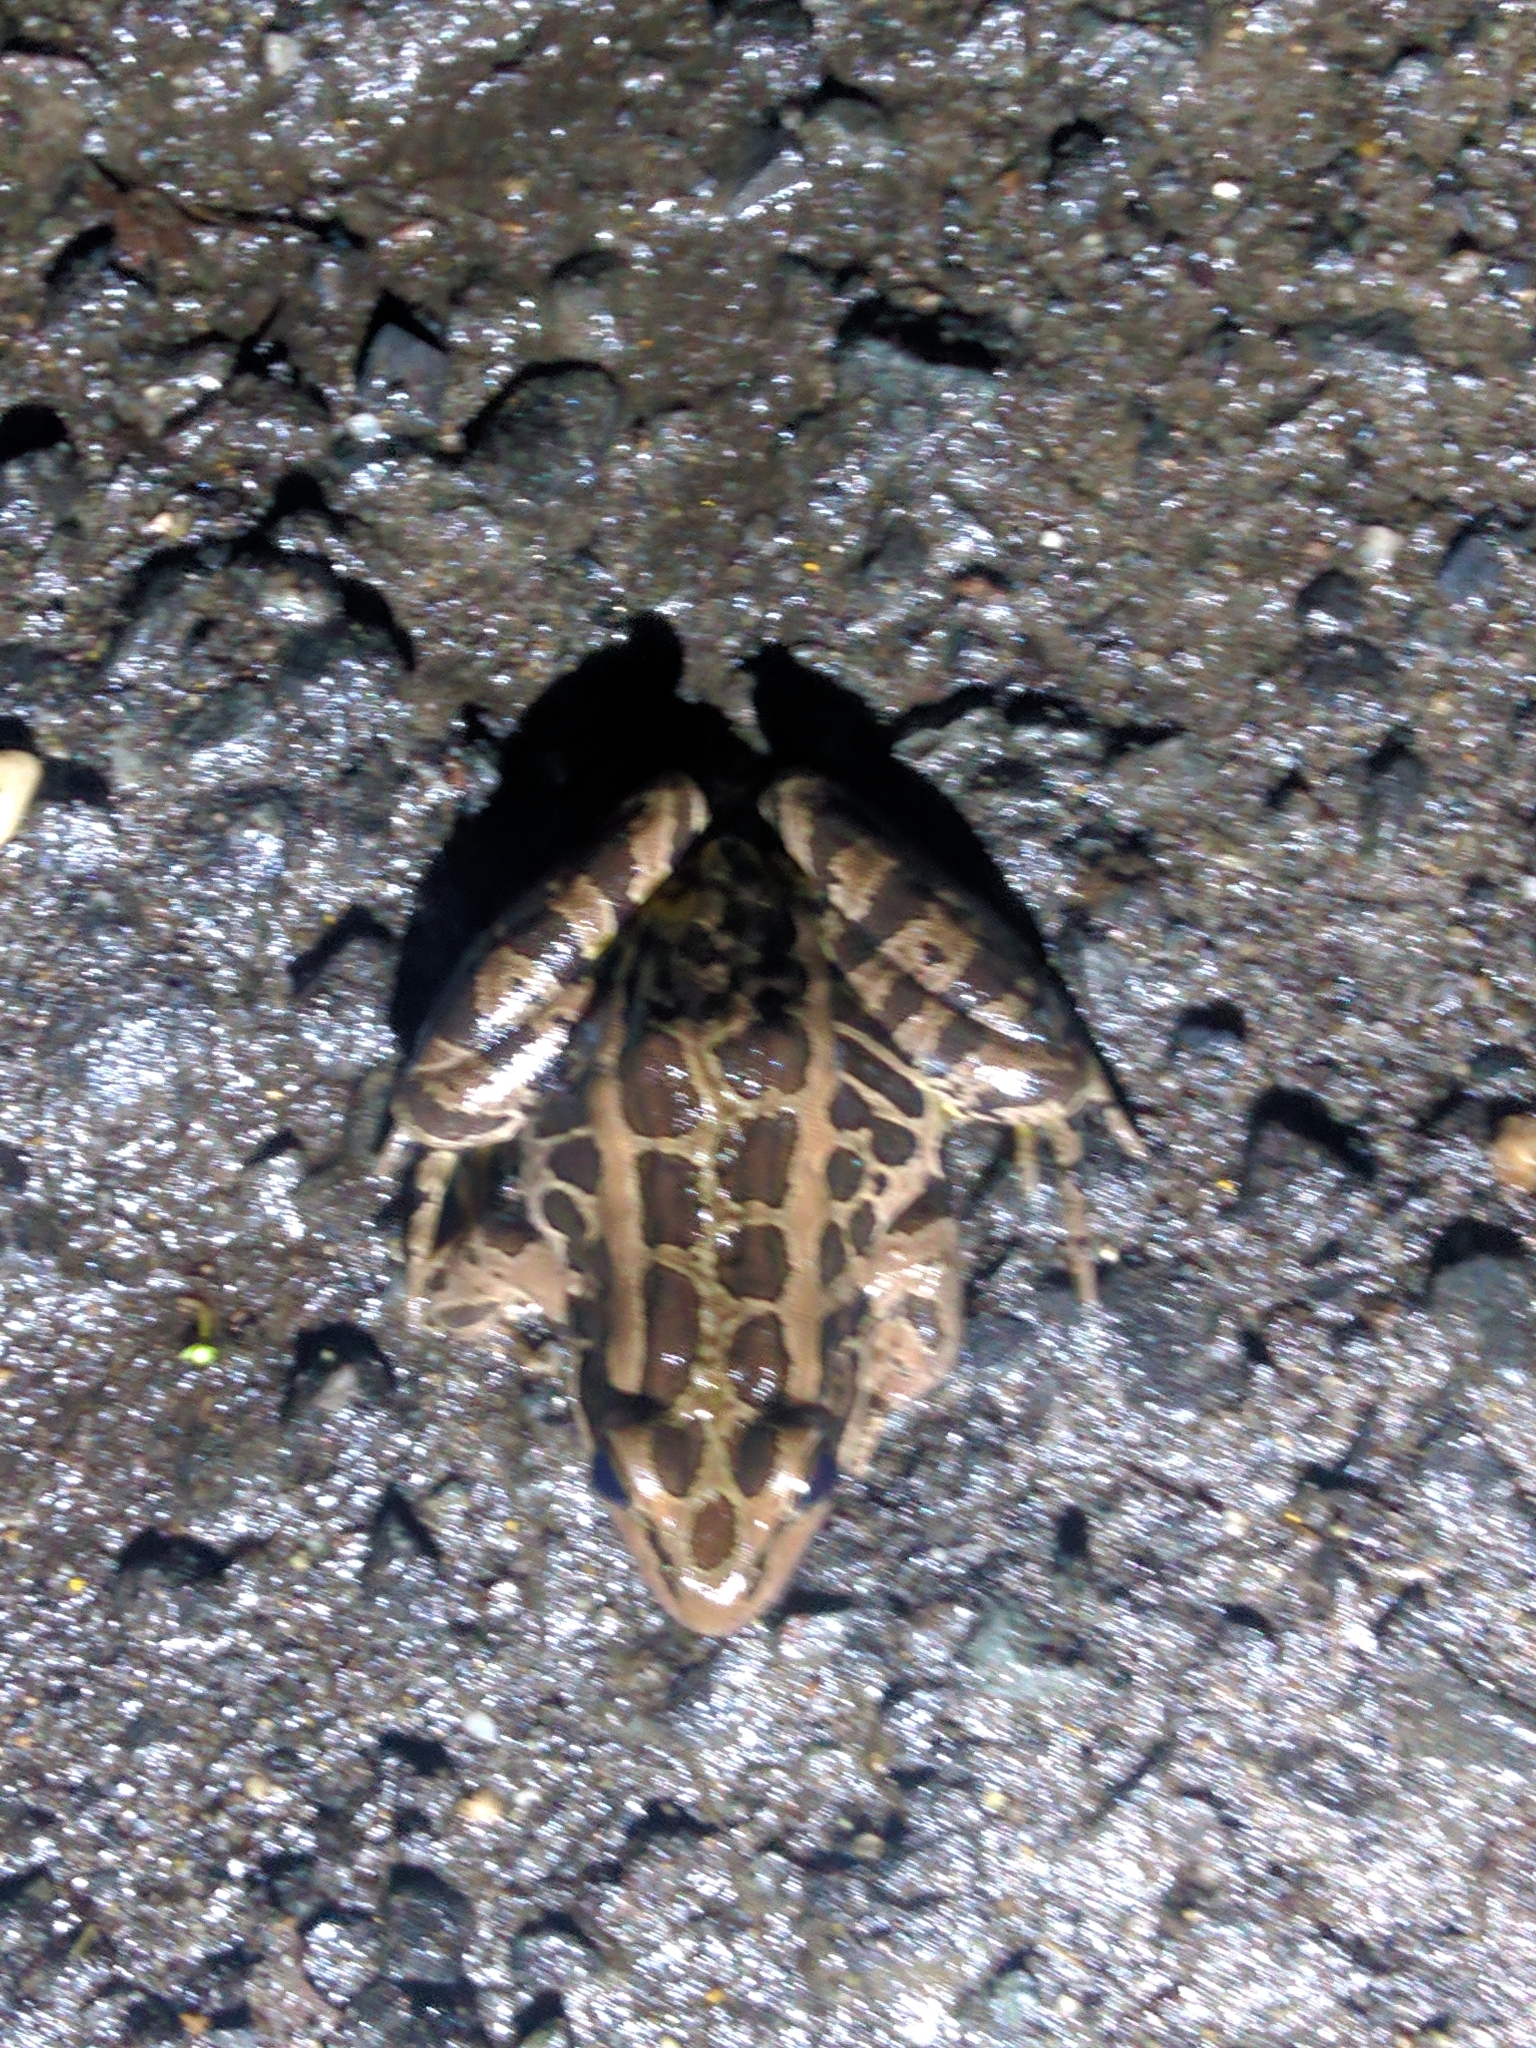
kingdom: Animalia
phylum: Chordata
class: Amphibia
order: Anura
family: Ranidae
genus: Lithobates
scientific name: Lithobates palustris
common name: Pickerel frog
